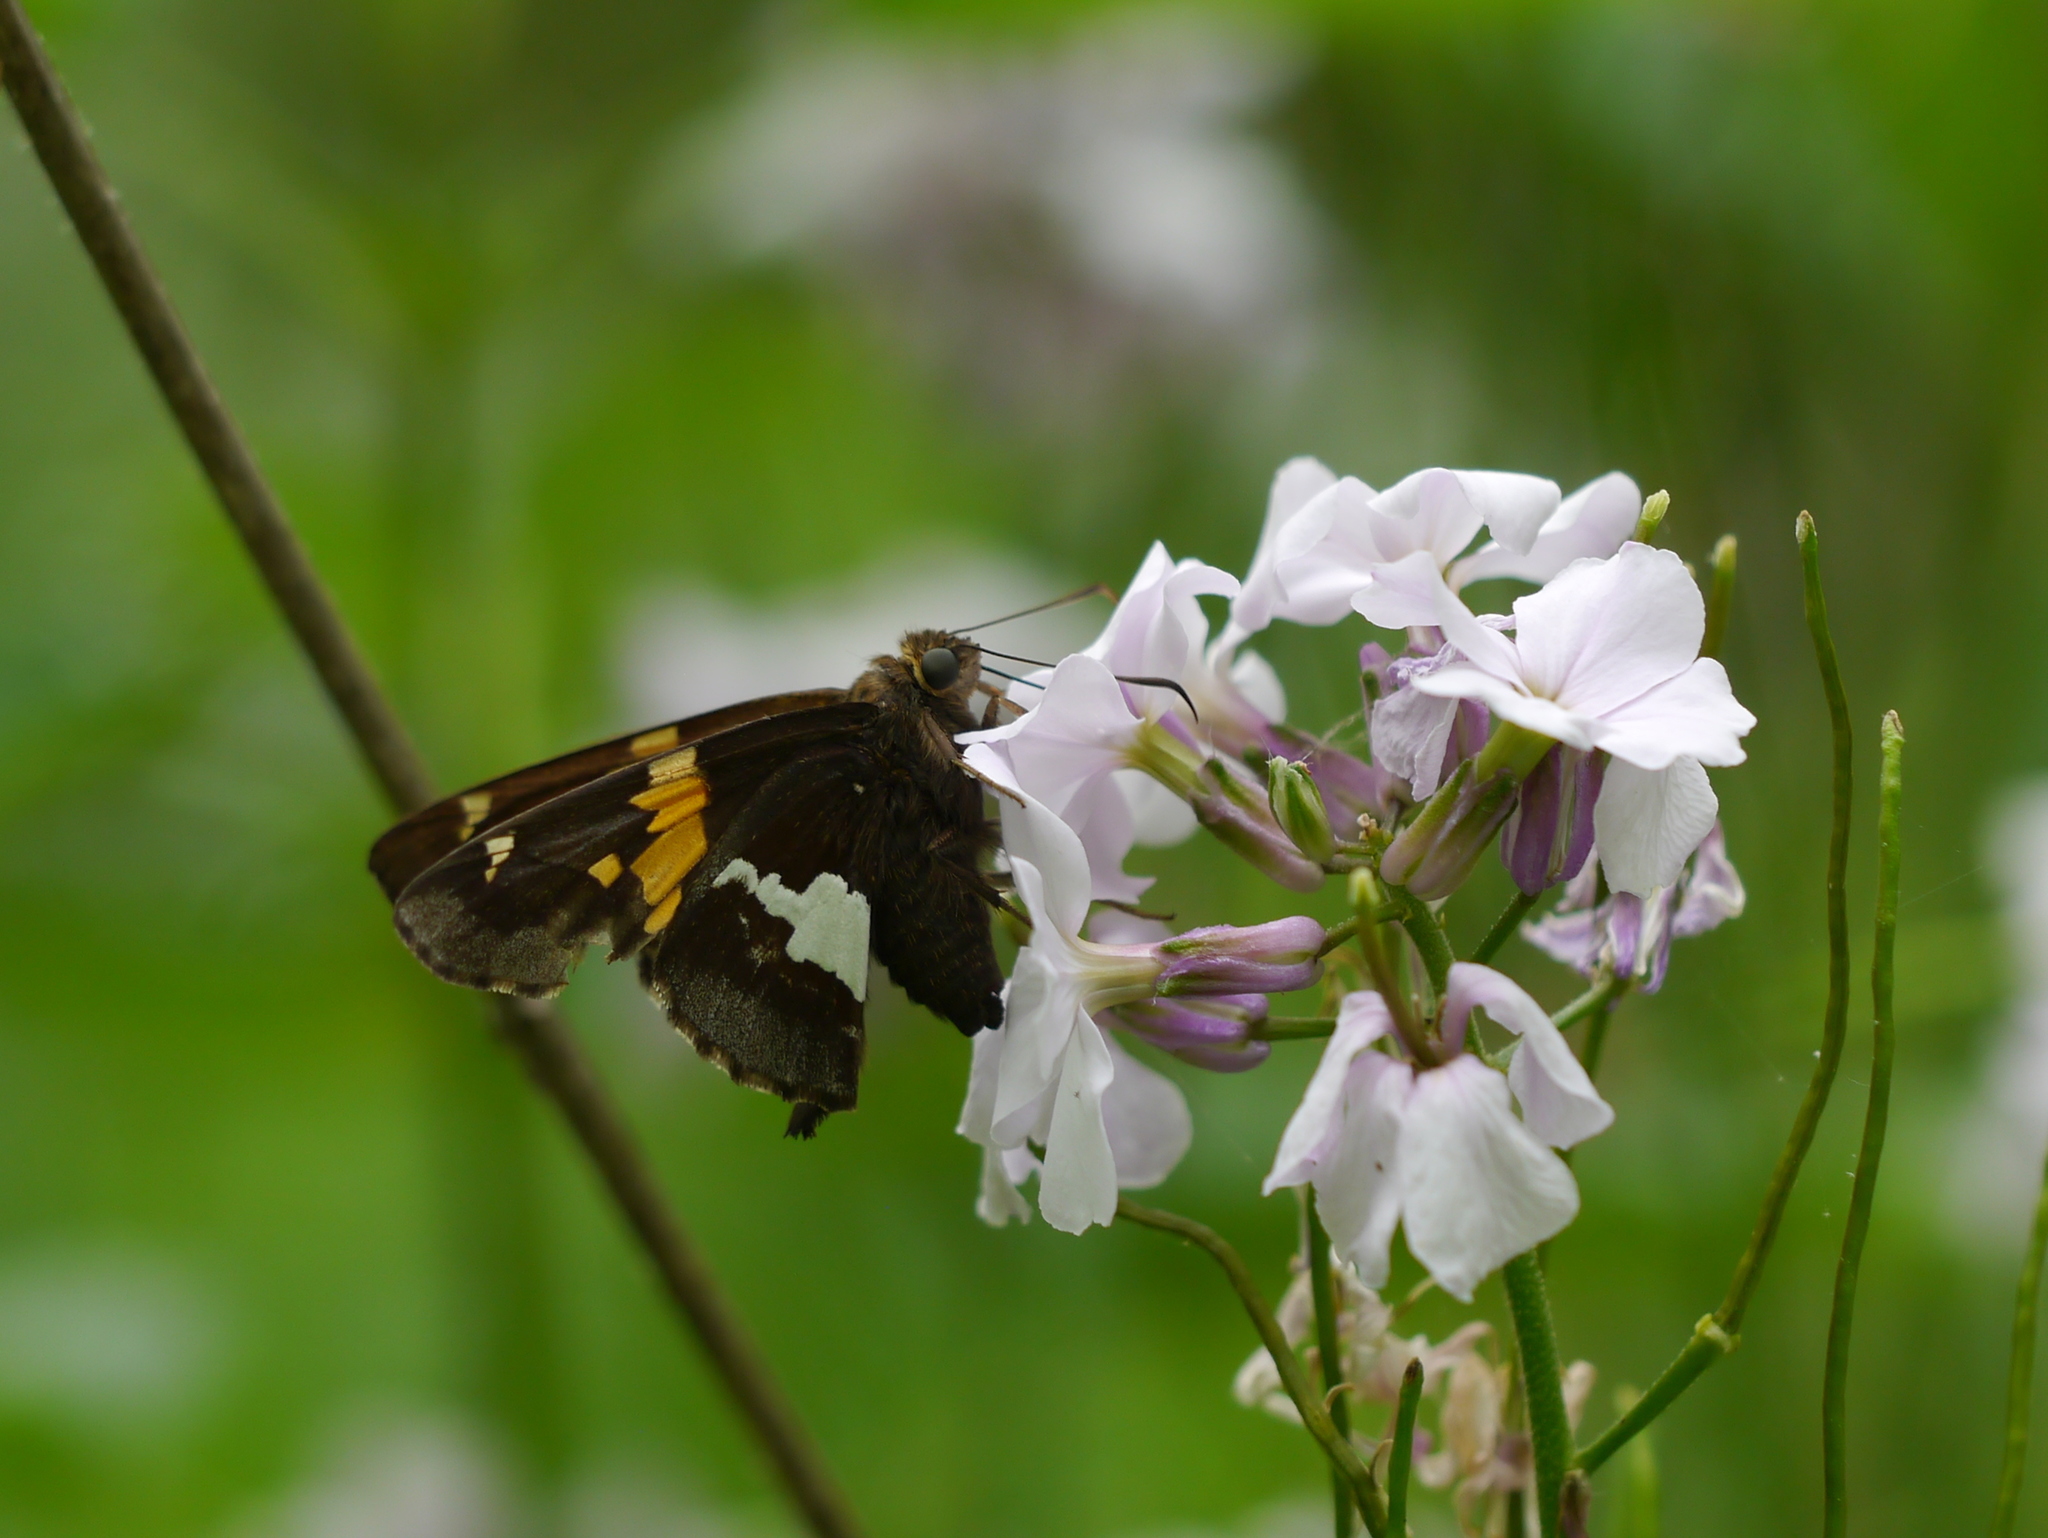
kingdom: Animalia
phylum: Arthropoda
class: Insecta
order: Lepidoptera
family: Hesperiidae
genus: Epargyreus
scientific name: Epargyreus clarus
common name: Silver-spotted skipper
